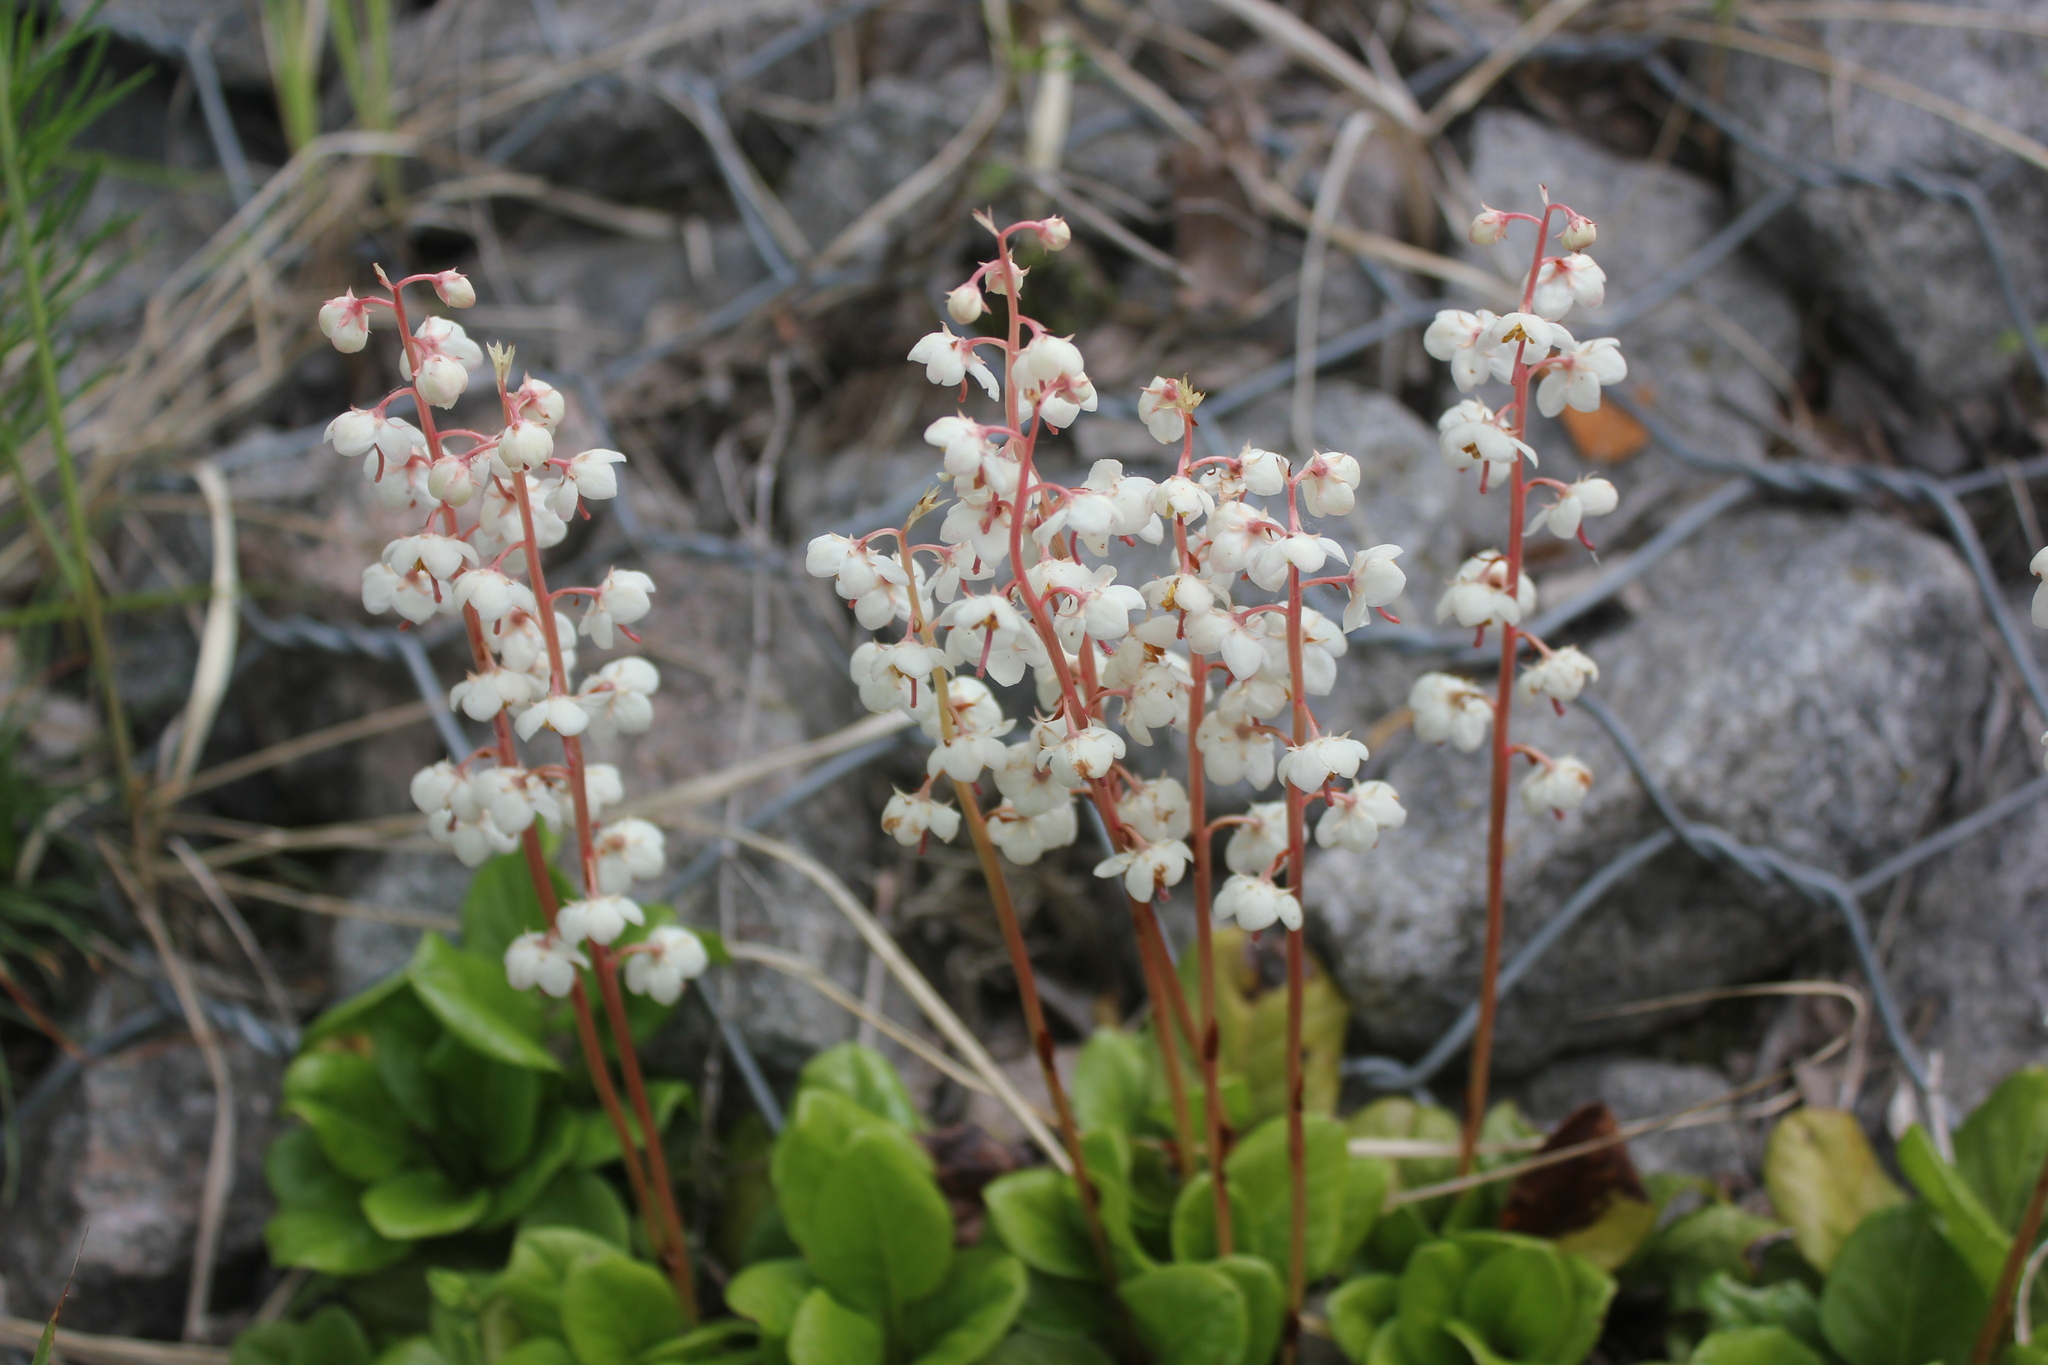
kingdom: Plantae
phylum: Tracheophyta
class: Magnoliopsida
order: Ericales
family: Ericaceae
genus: Pyrola
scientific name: Pyrola rotundifolia
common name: Round-leaved wintergreen
